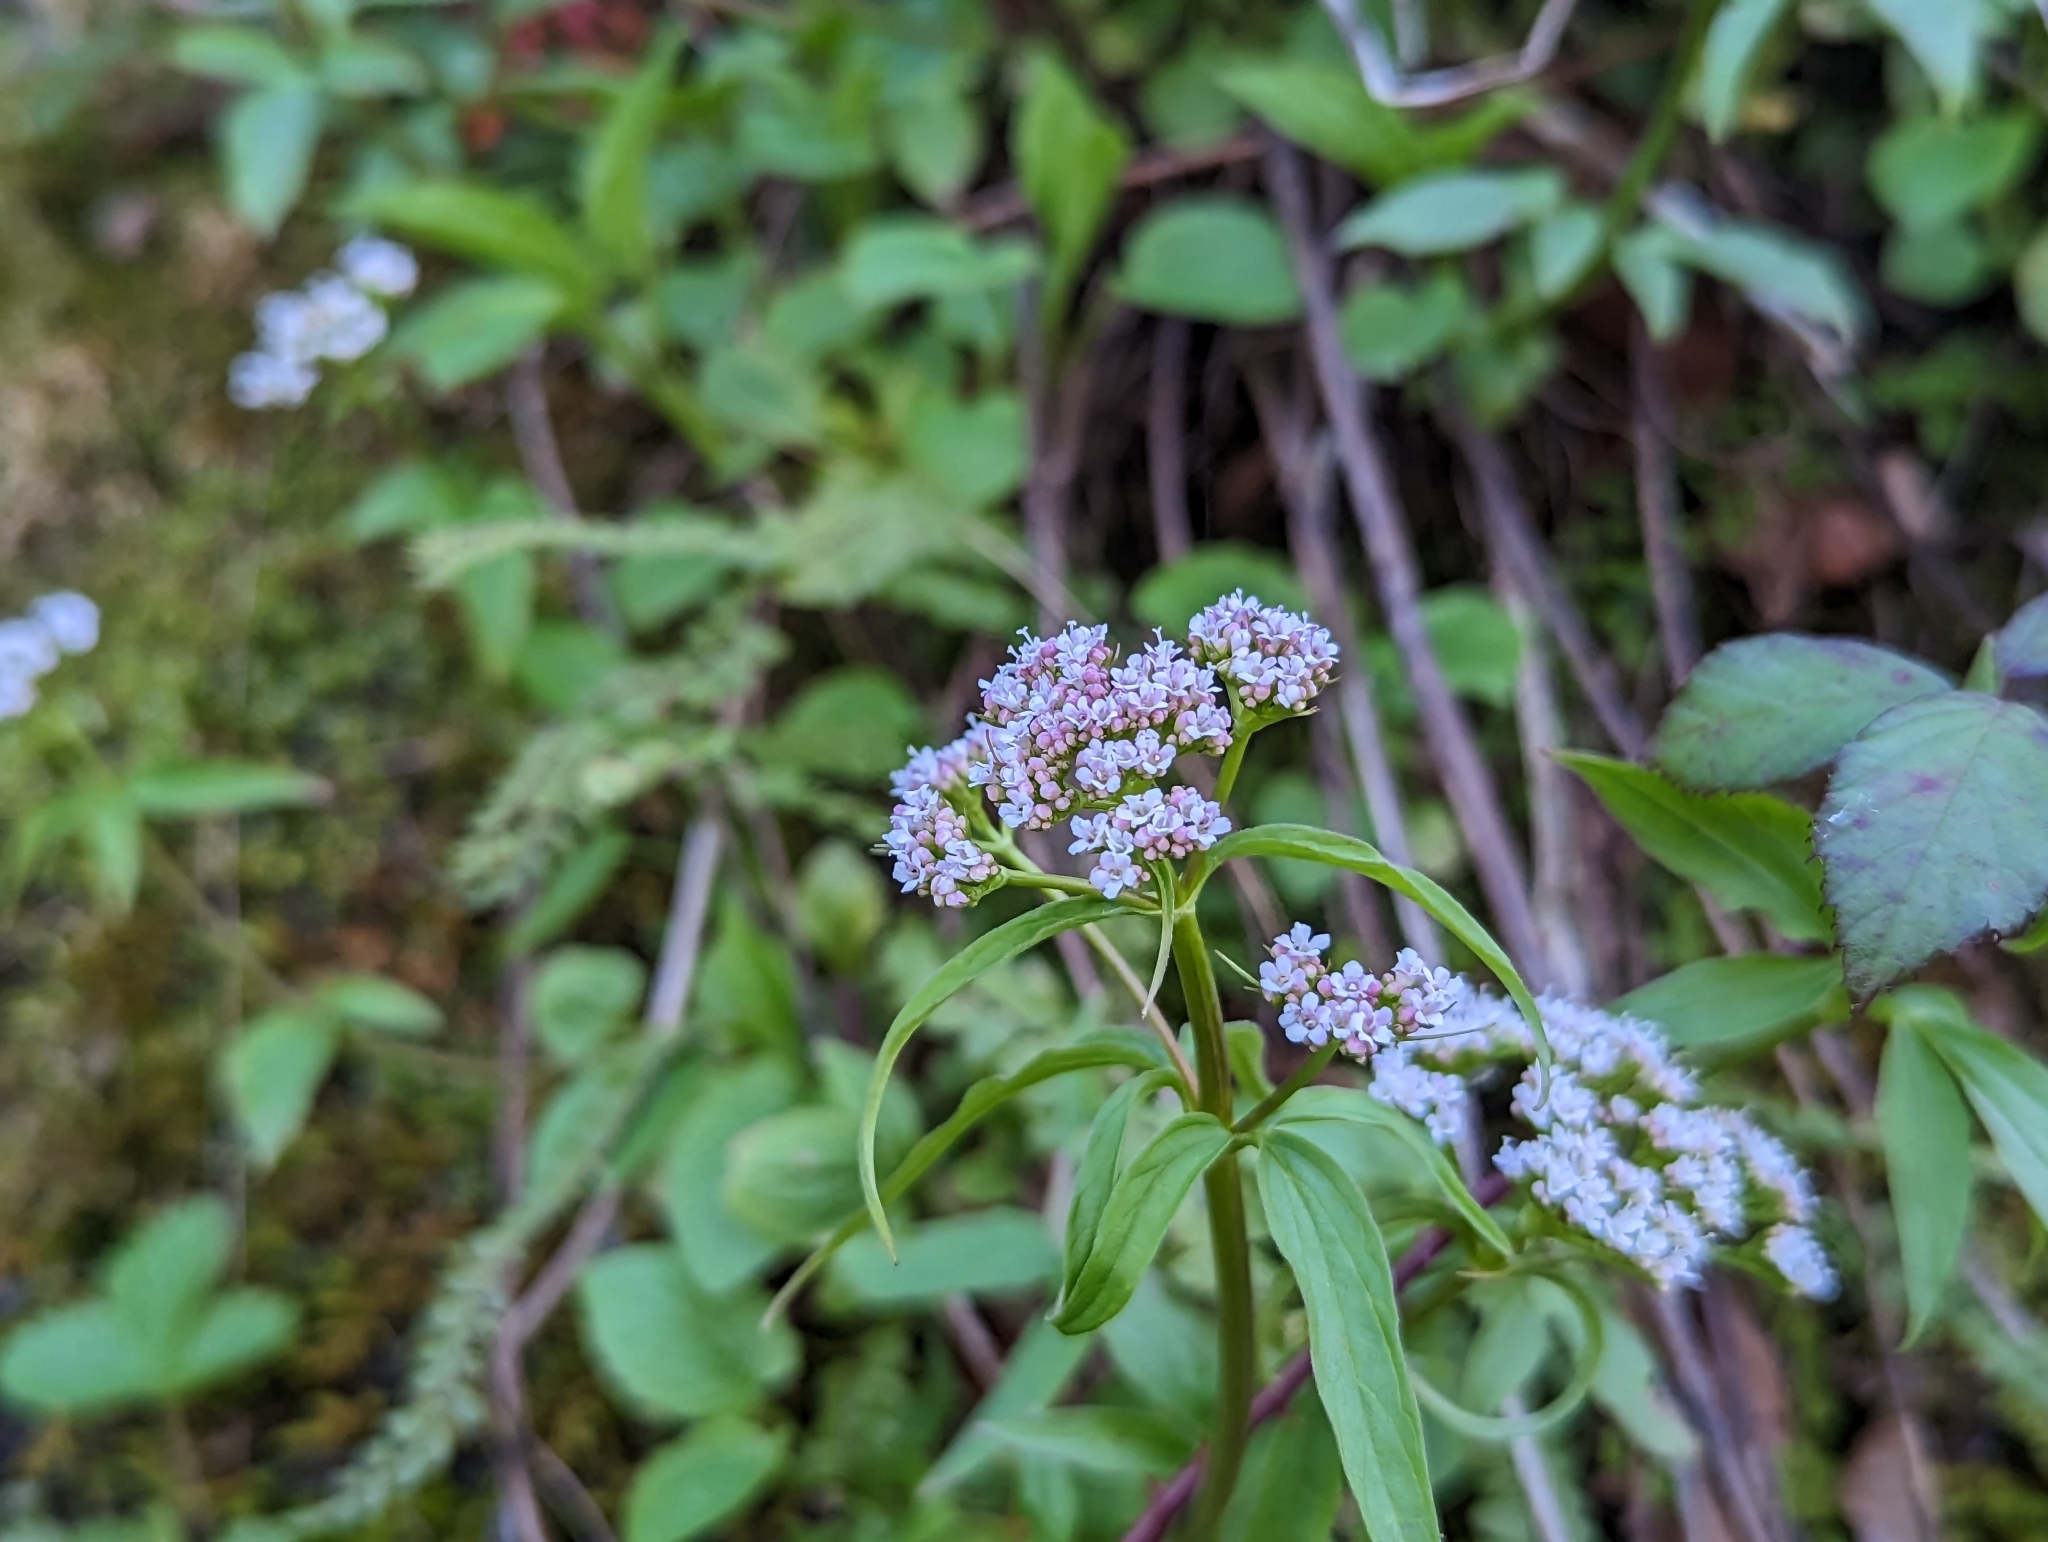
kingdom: Plantae
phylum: Tracheophyta
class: Magnoliopsida
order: Dipsacales
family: Caprifoliaceae
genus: Valeriana
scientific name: Valeriana tripteris
